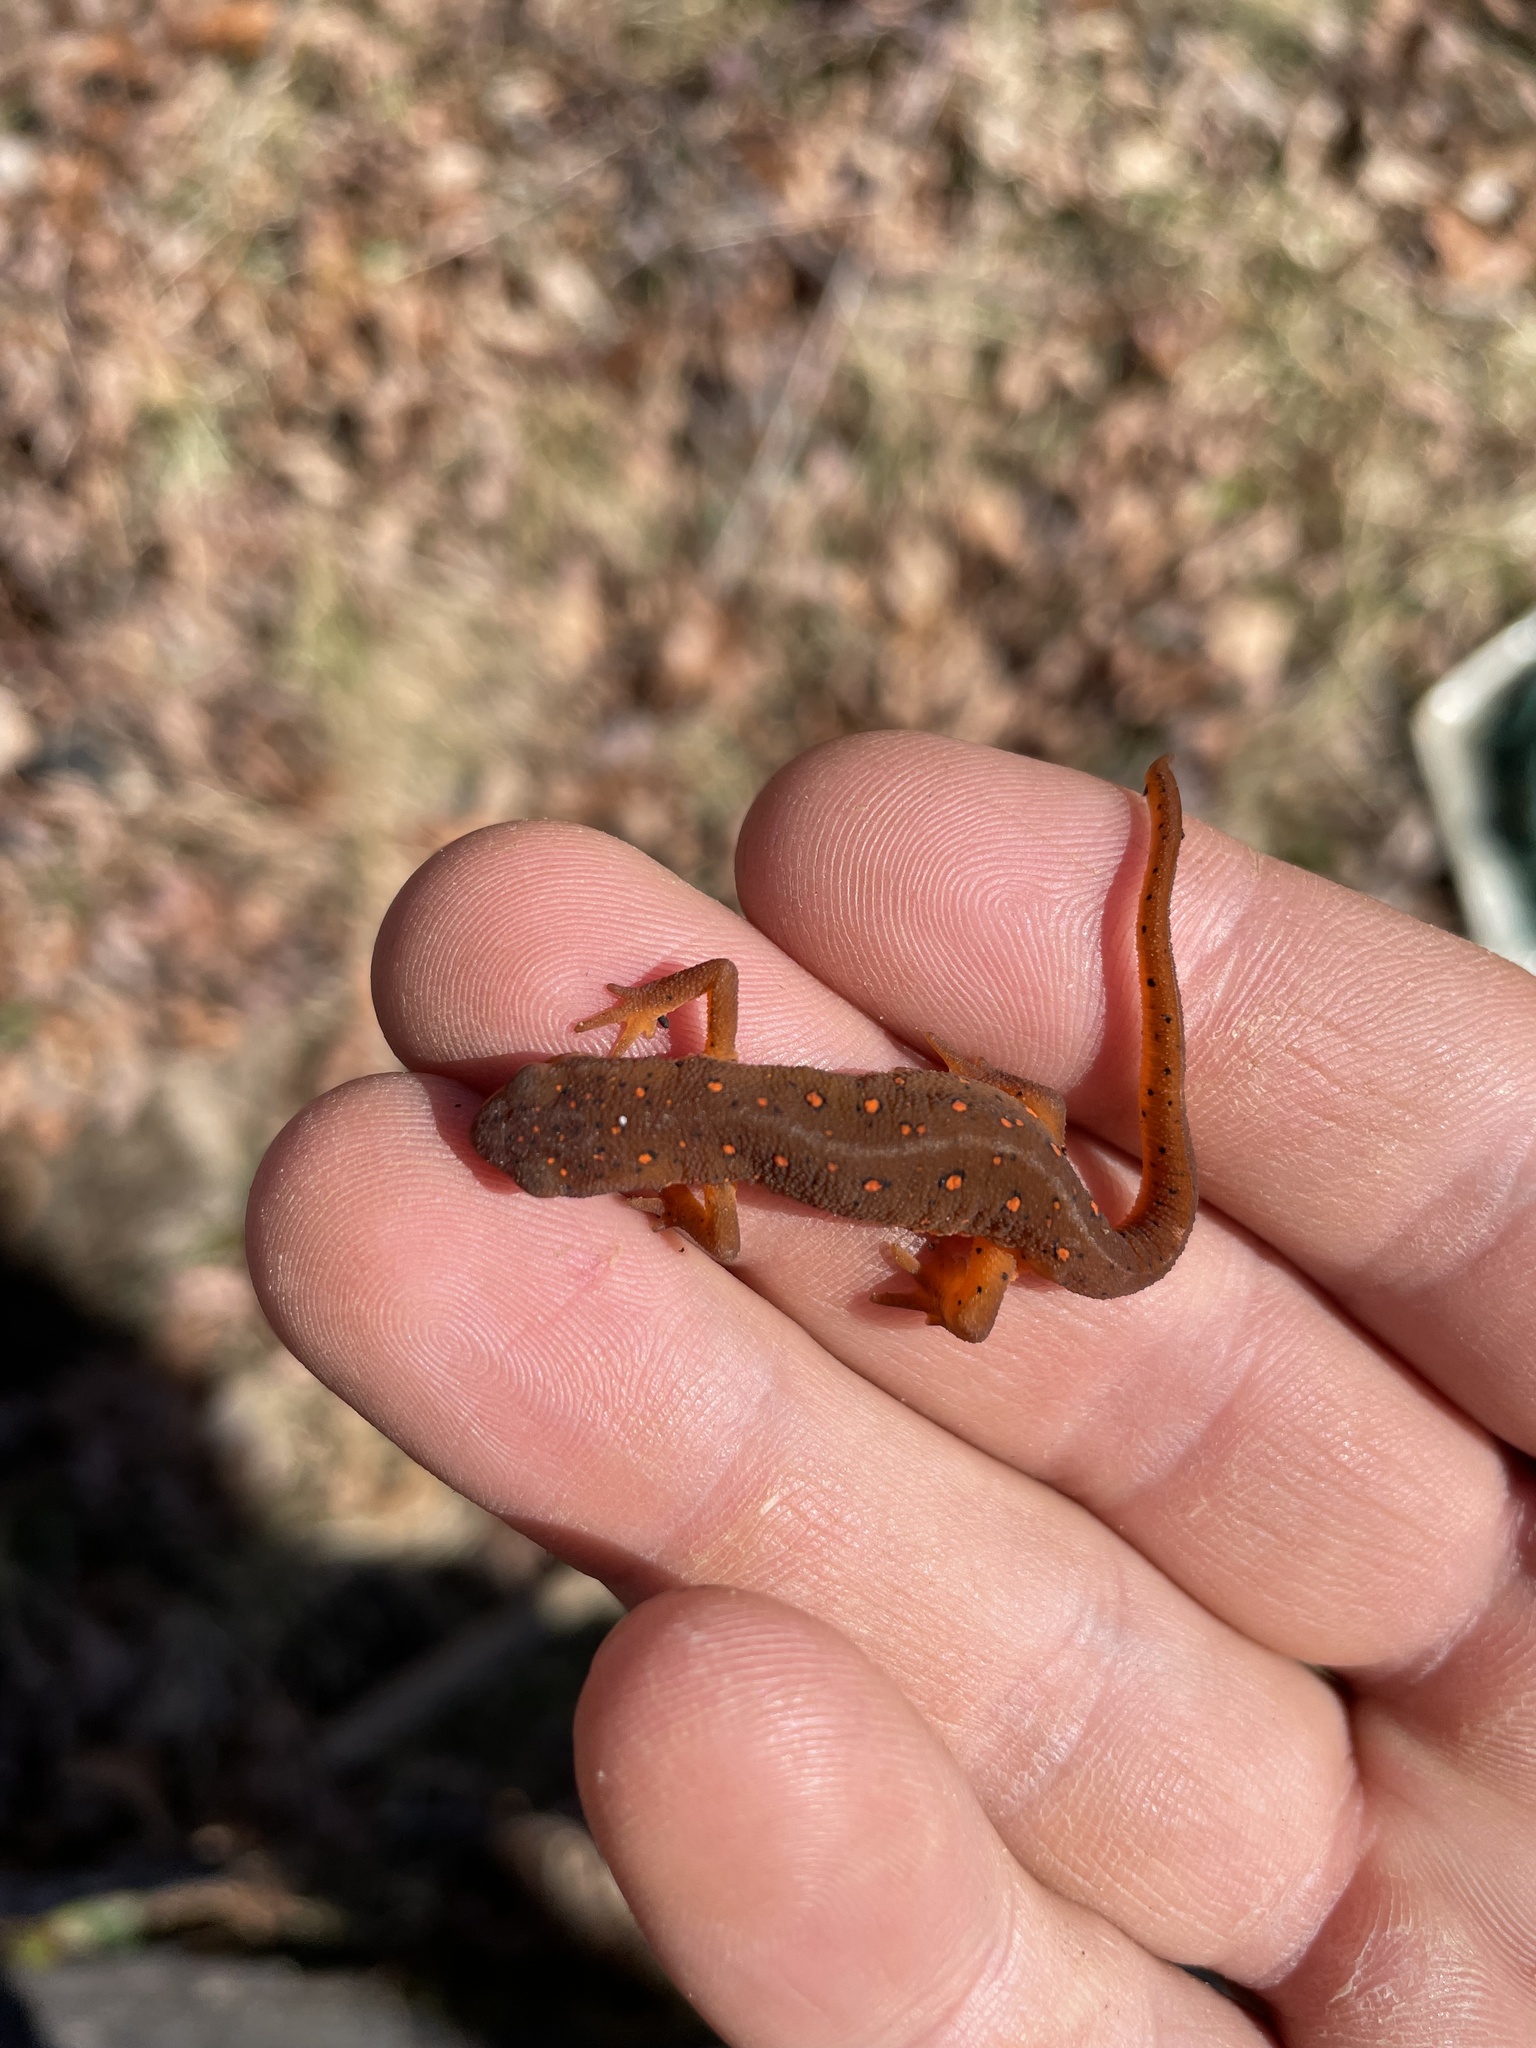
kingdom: Animalia
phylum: Chordata
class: Amphibia
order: Caudata
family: Salamandridae
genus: Notophthalmus
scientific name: Notophthalmus viridescens
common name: Eastern newt
